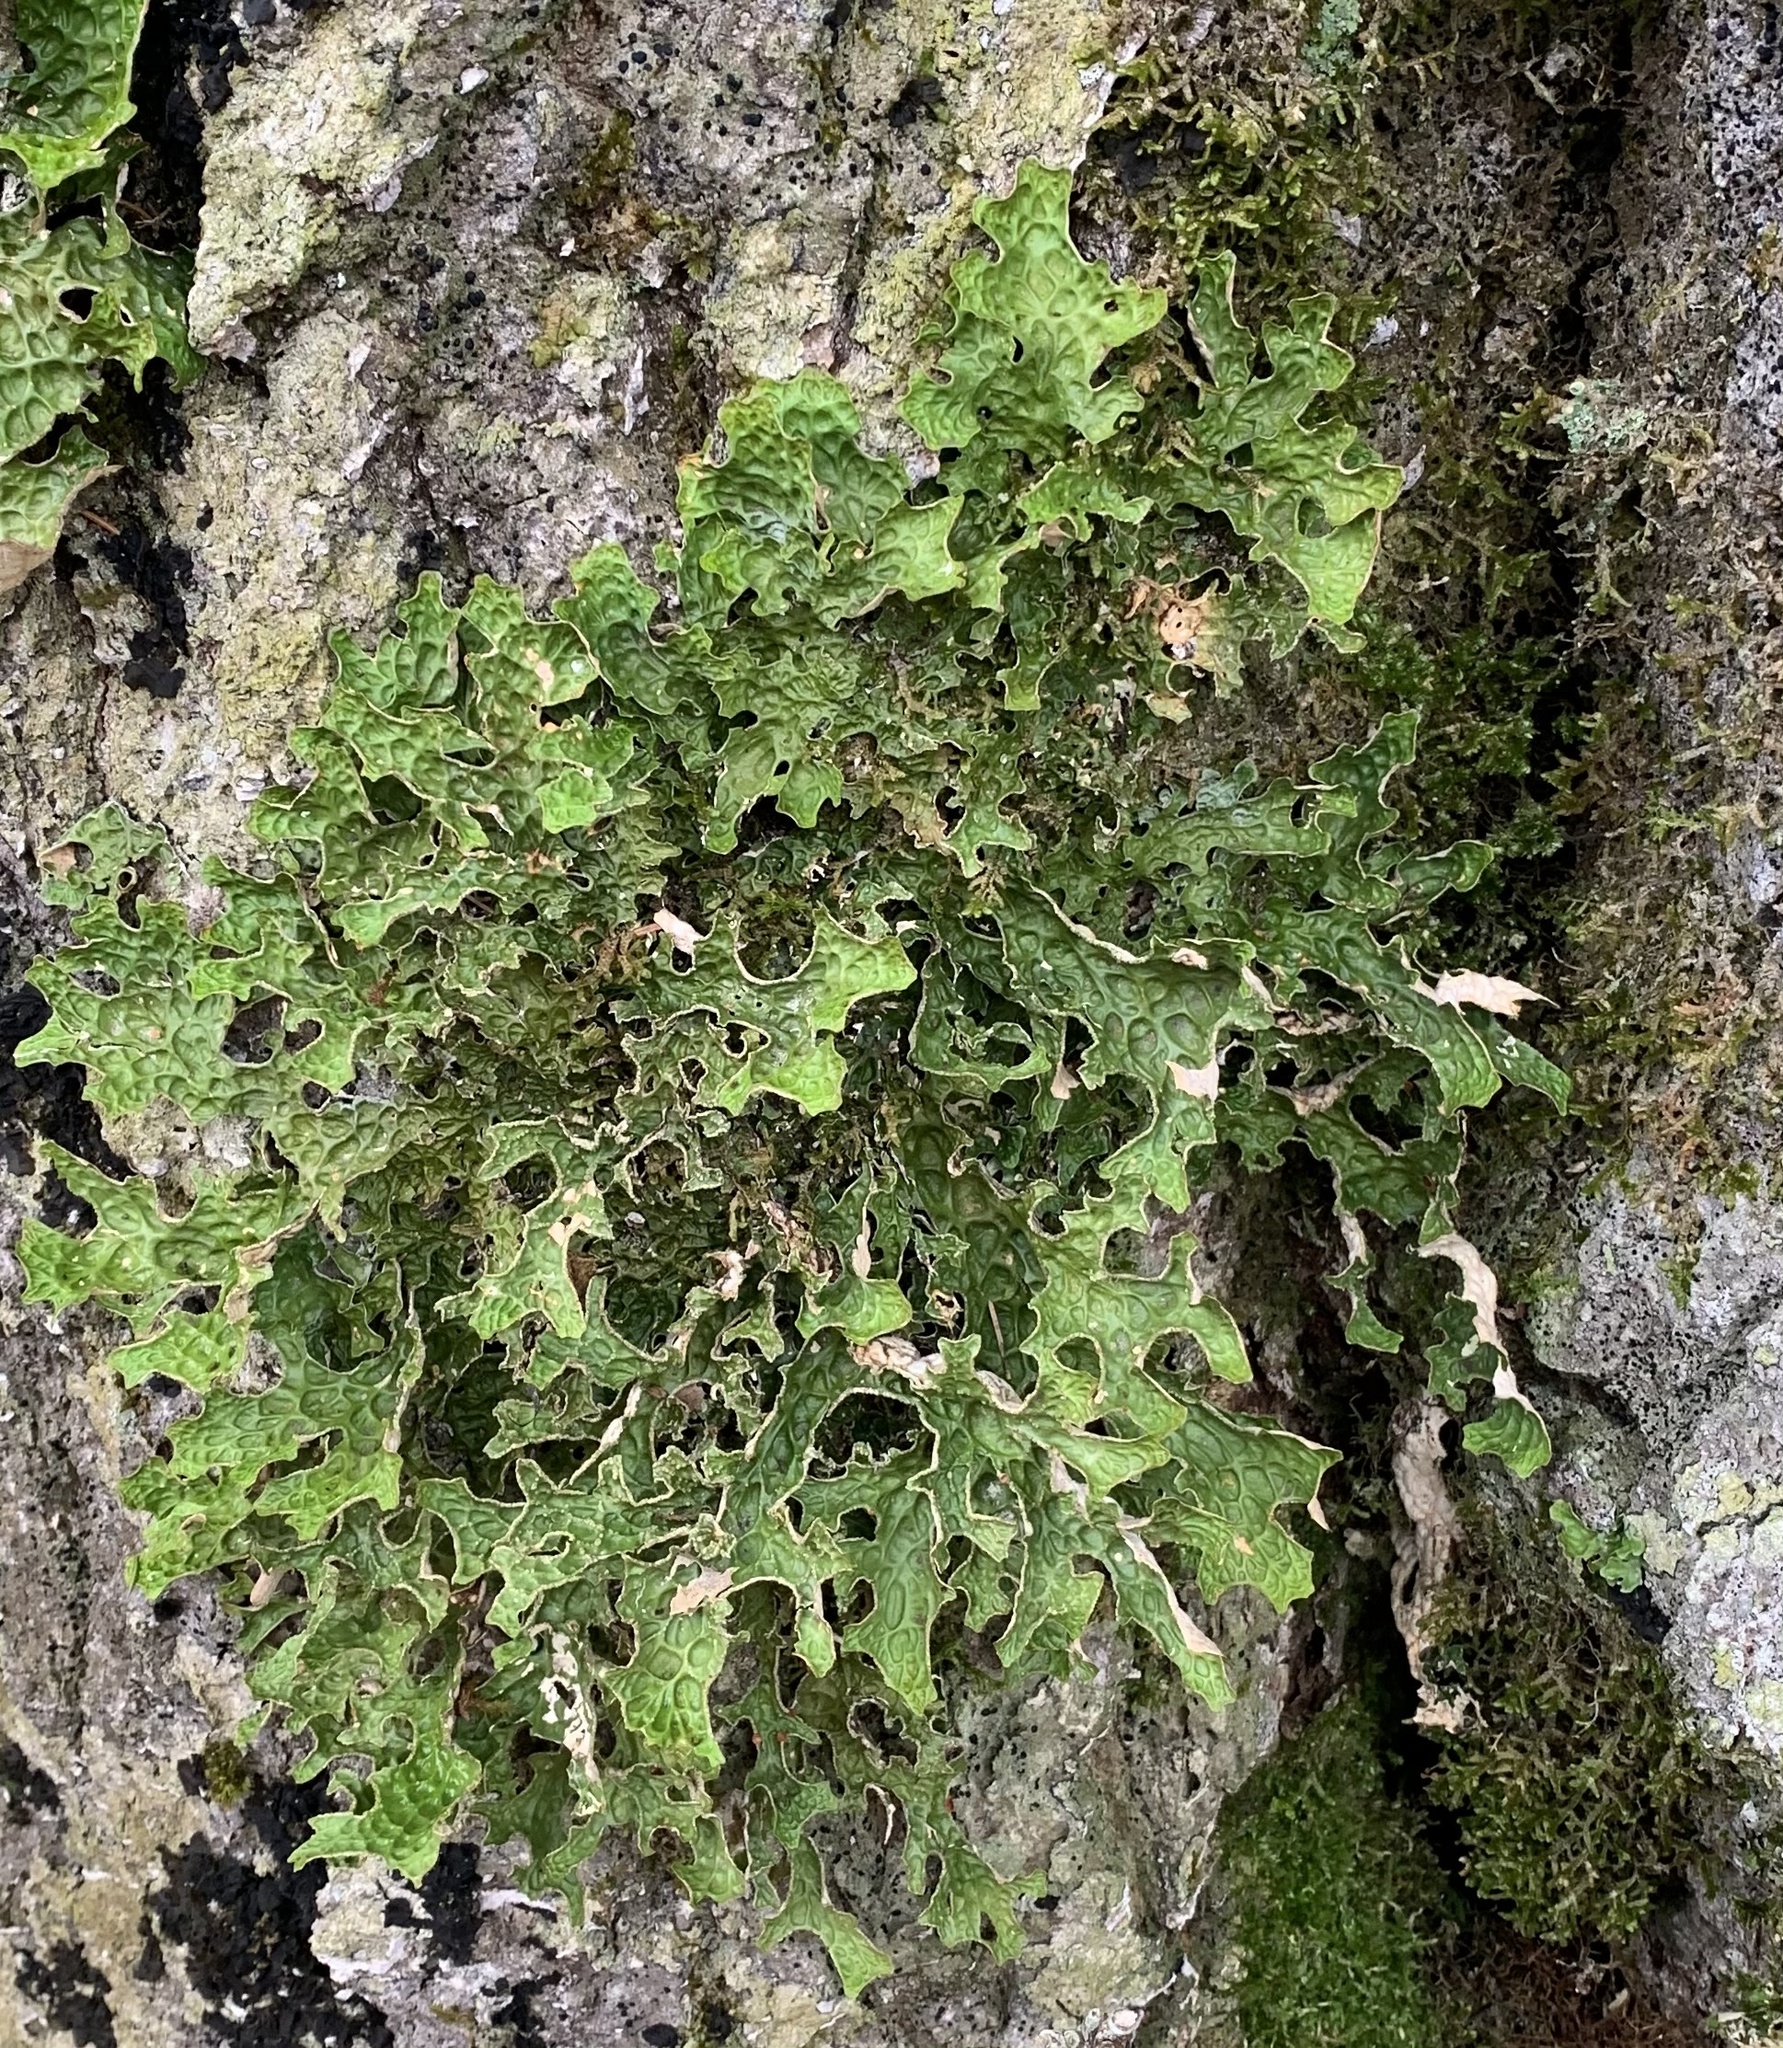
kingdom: Fungi
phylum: Ascomycota
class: Lecanoromycetes
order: Peltigerales
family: Lobariaceae
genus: Lobaria
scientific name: Lobaria pulmonaria
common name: Lungwort
